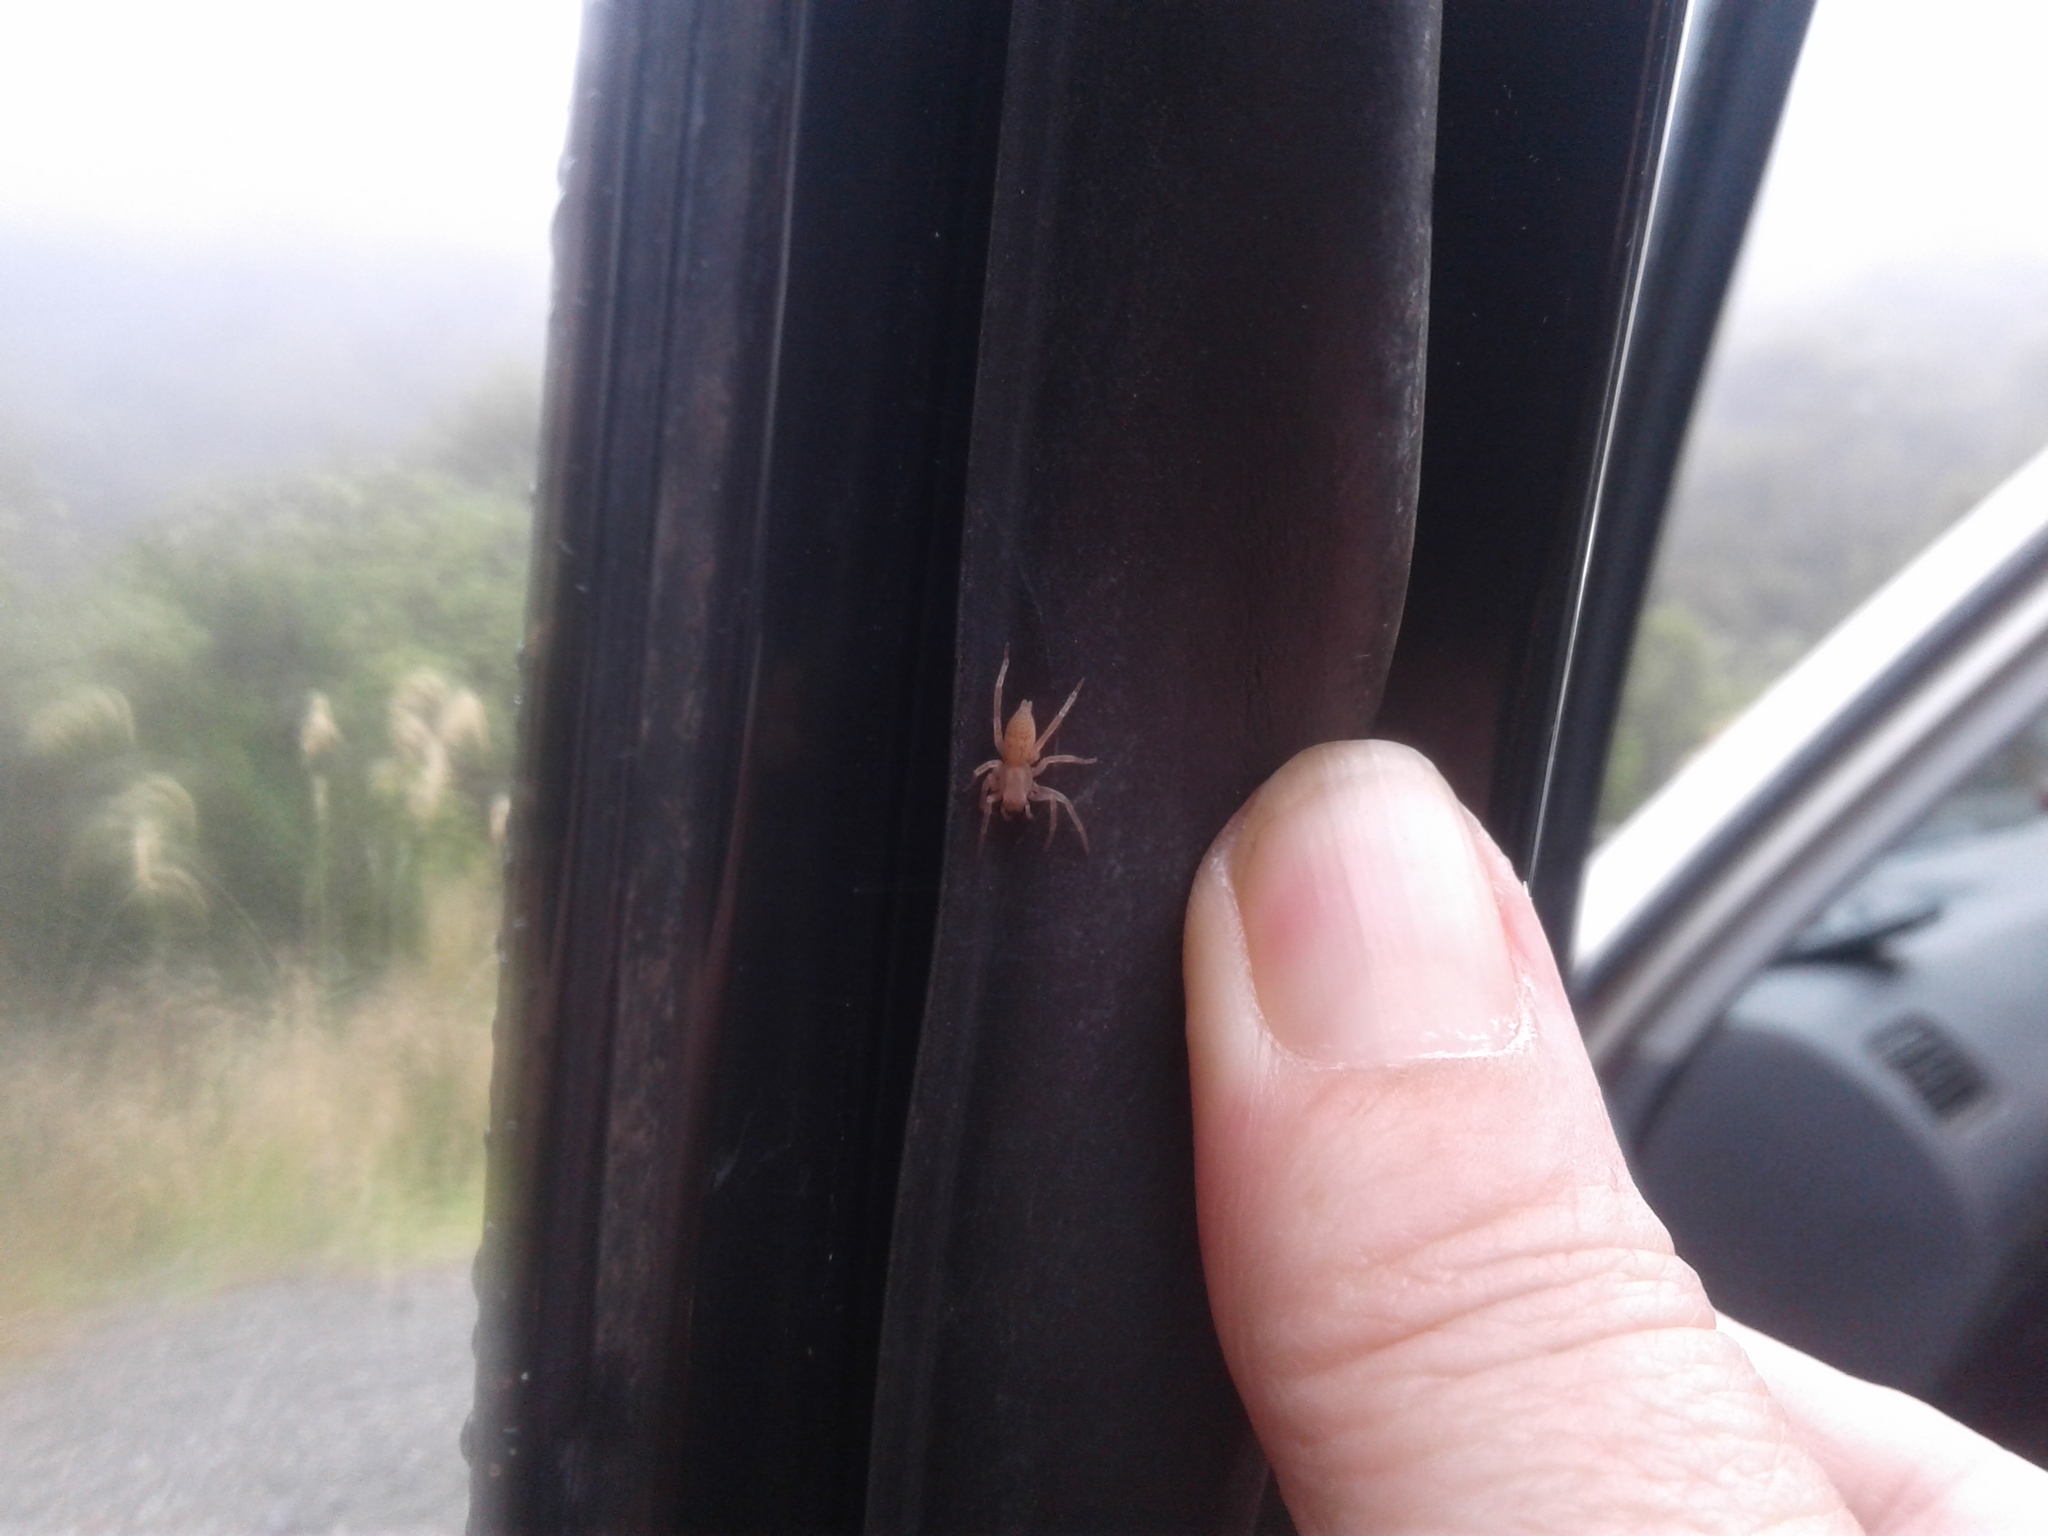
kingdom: Animalia
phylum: Arthropoda
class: Arachnida
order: Araneae
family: Clubionidae
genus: Clubiona
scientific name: Clubiona
